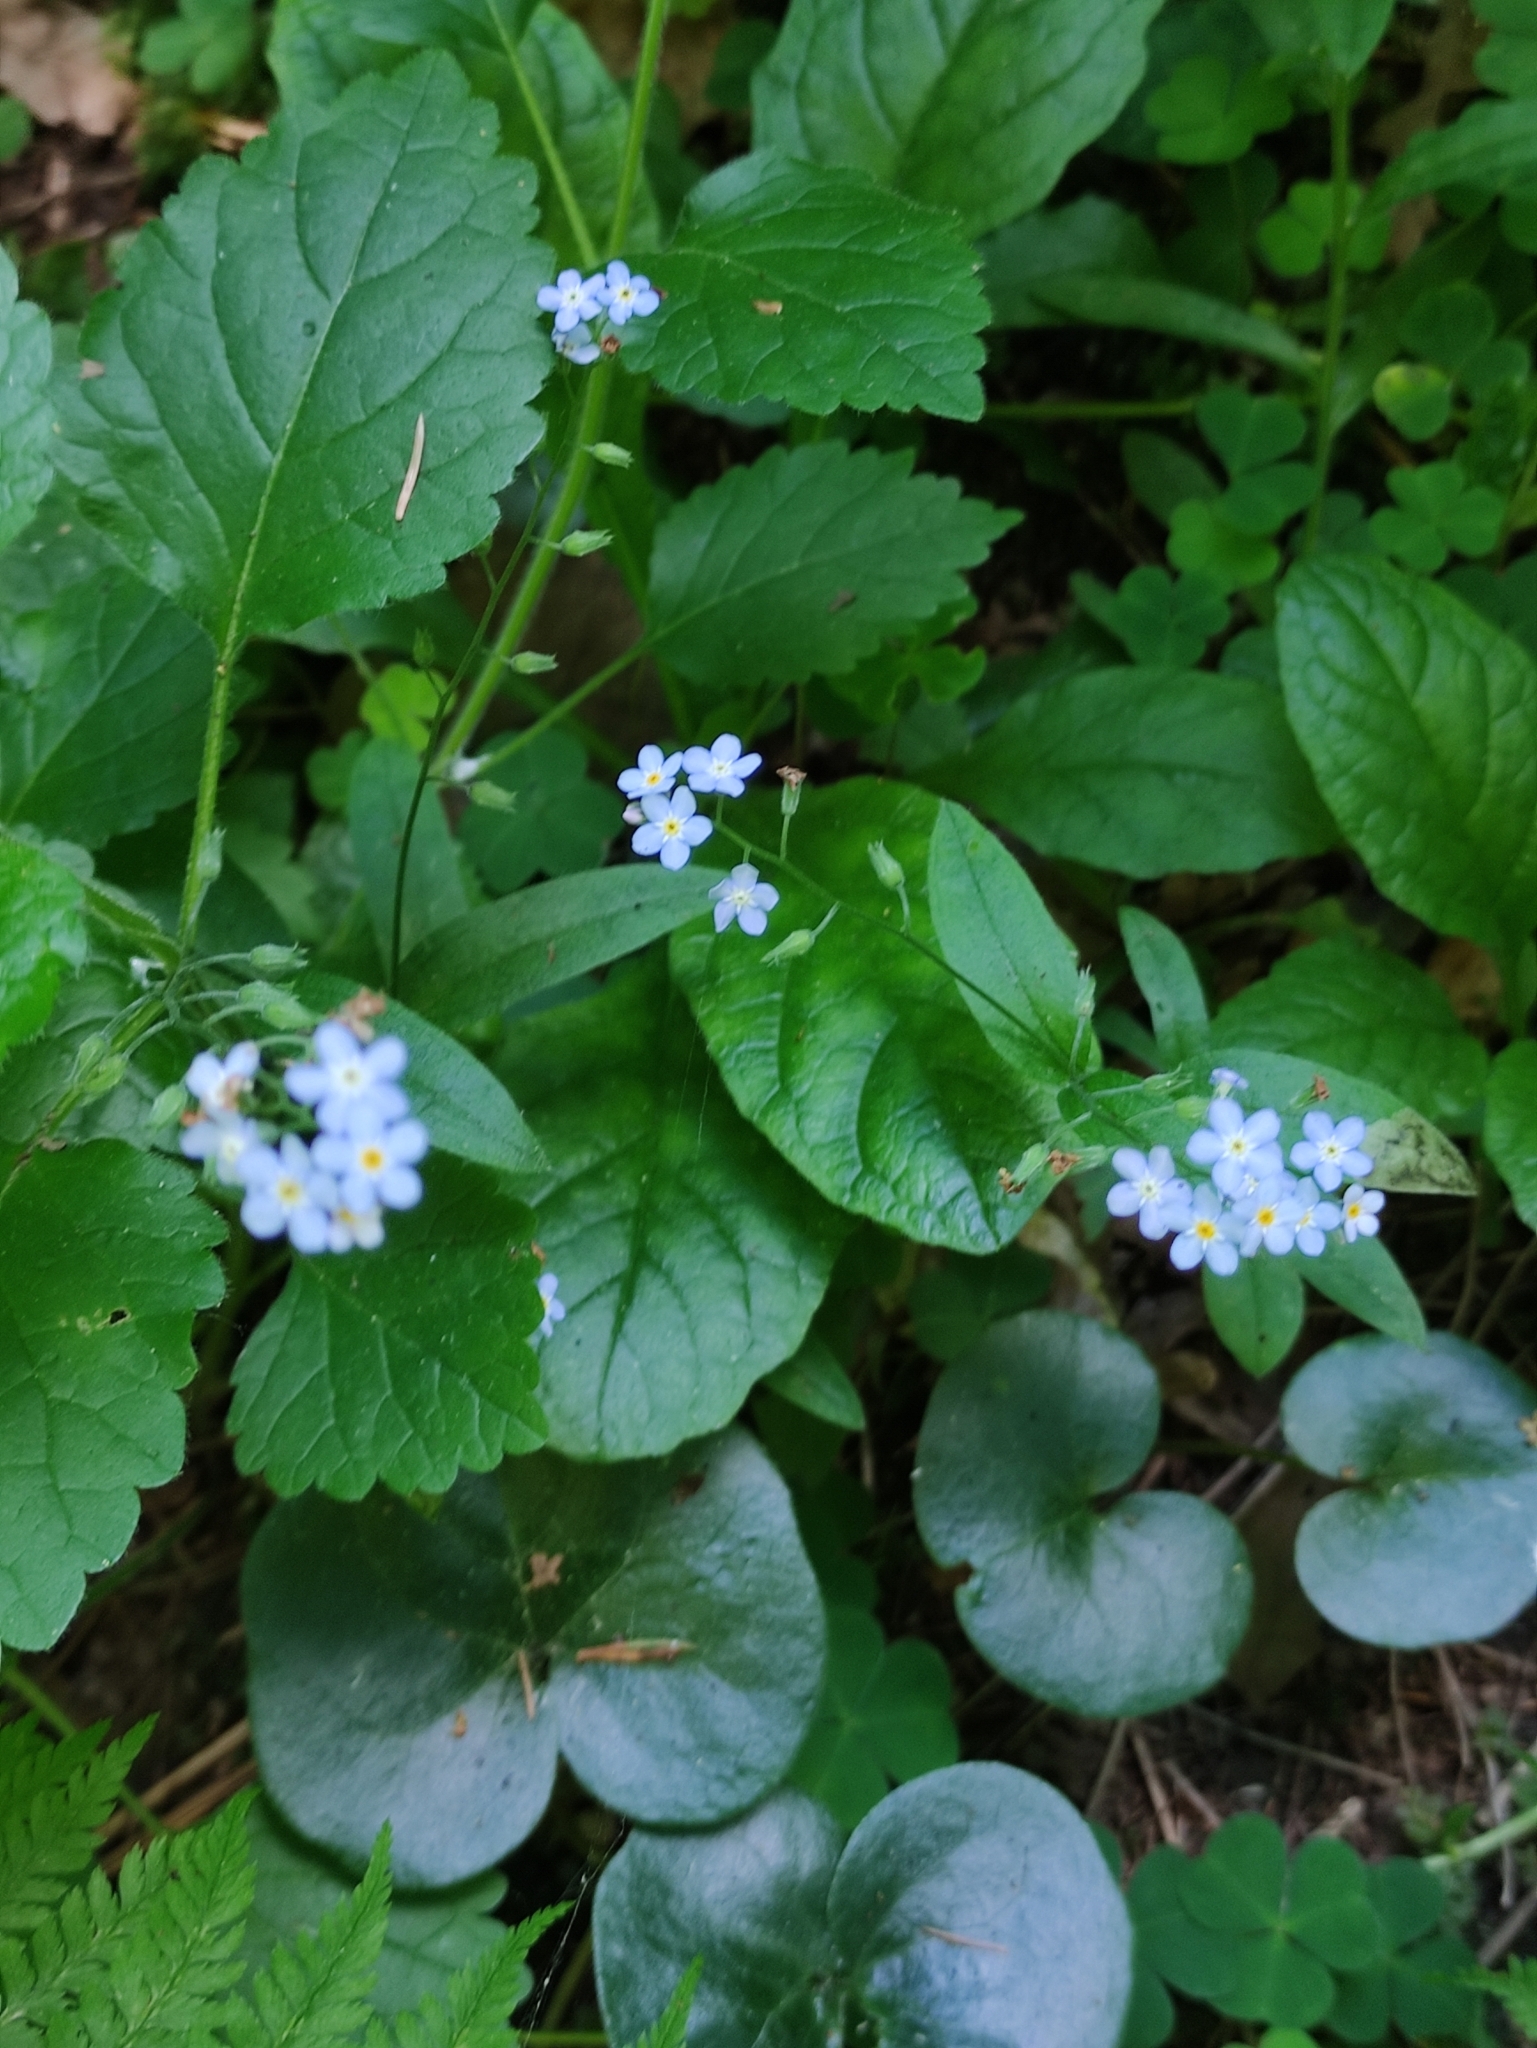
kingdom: Plantae
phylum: Tracheophyta
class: Magnoliopsida
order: Boraginales
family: Boraginaceae
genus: Myosotis
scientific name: Myosotis sylvatica
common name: Wood forget-me-not
